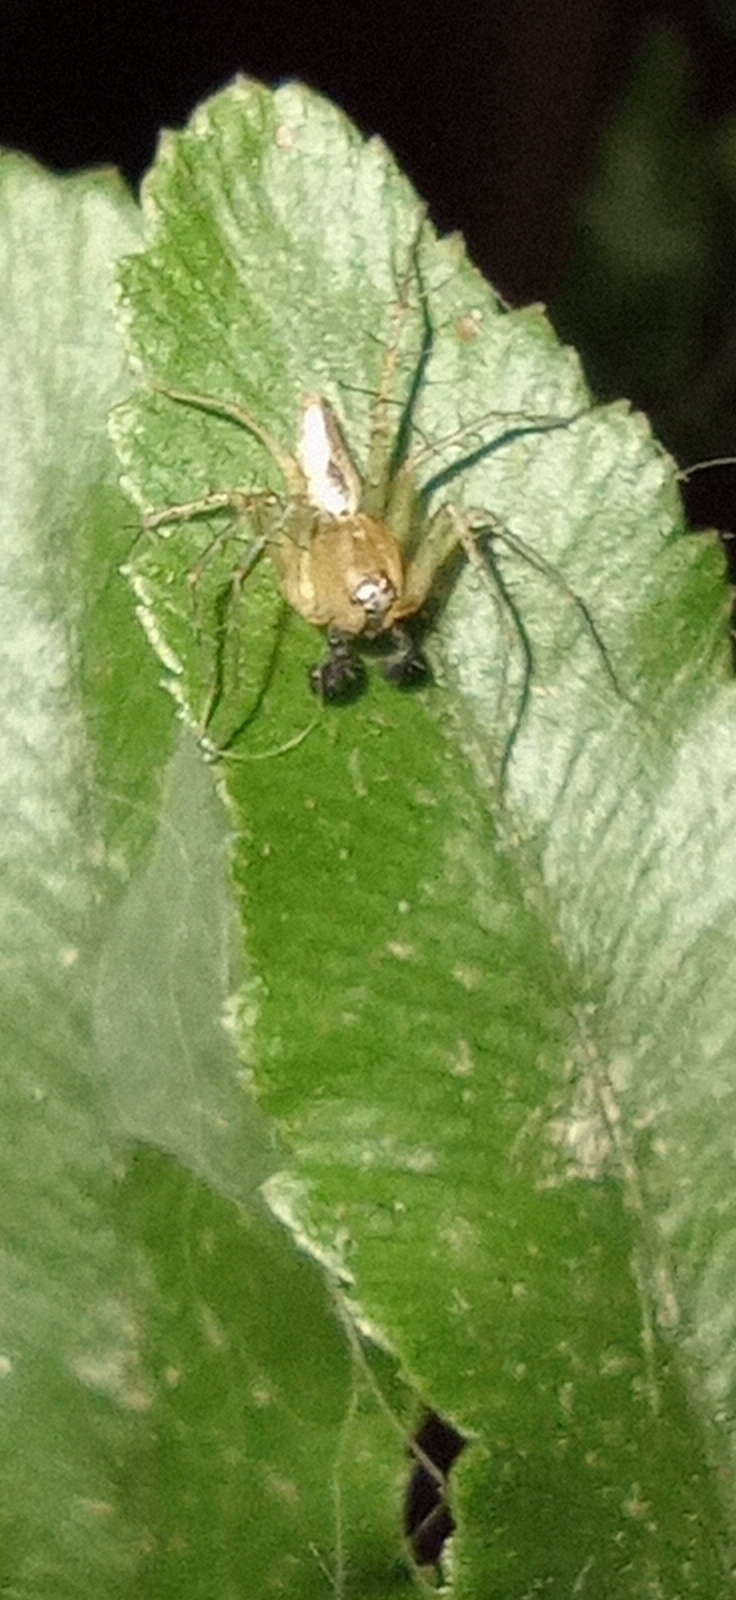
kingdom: Animalia
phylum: Arthropoda
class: Arachnida
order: Araneae
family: Oxyopidae
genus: Oxyopes
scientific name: Oxyopes salticus
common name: Lynx spiders
